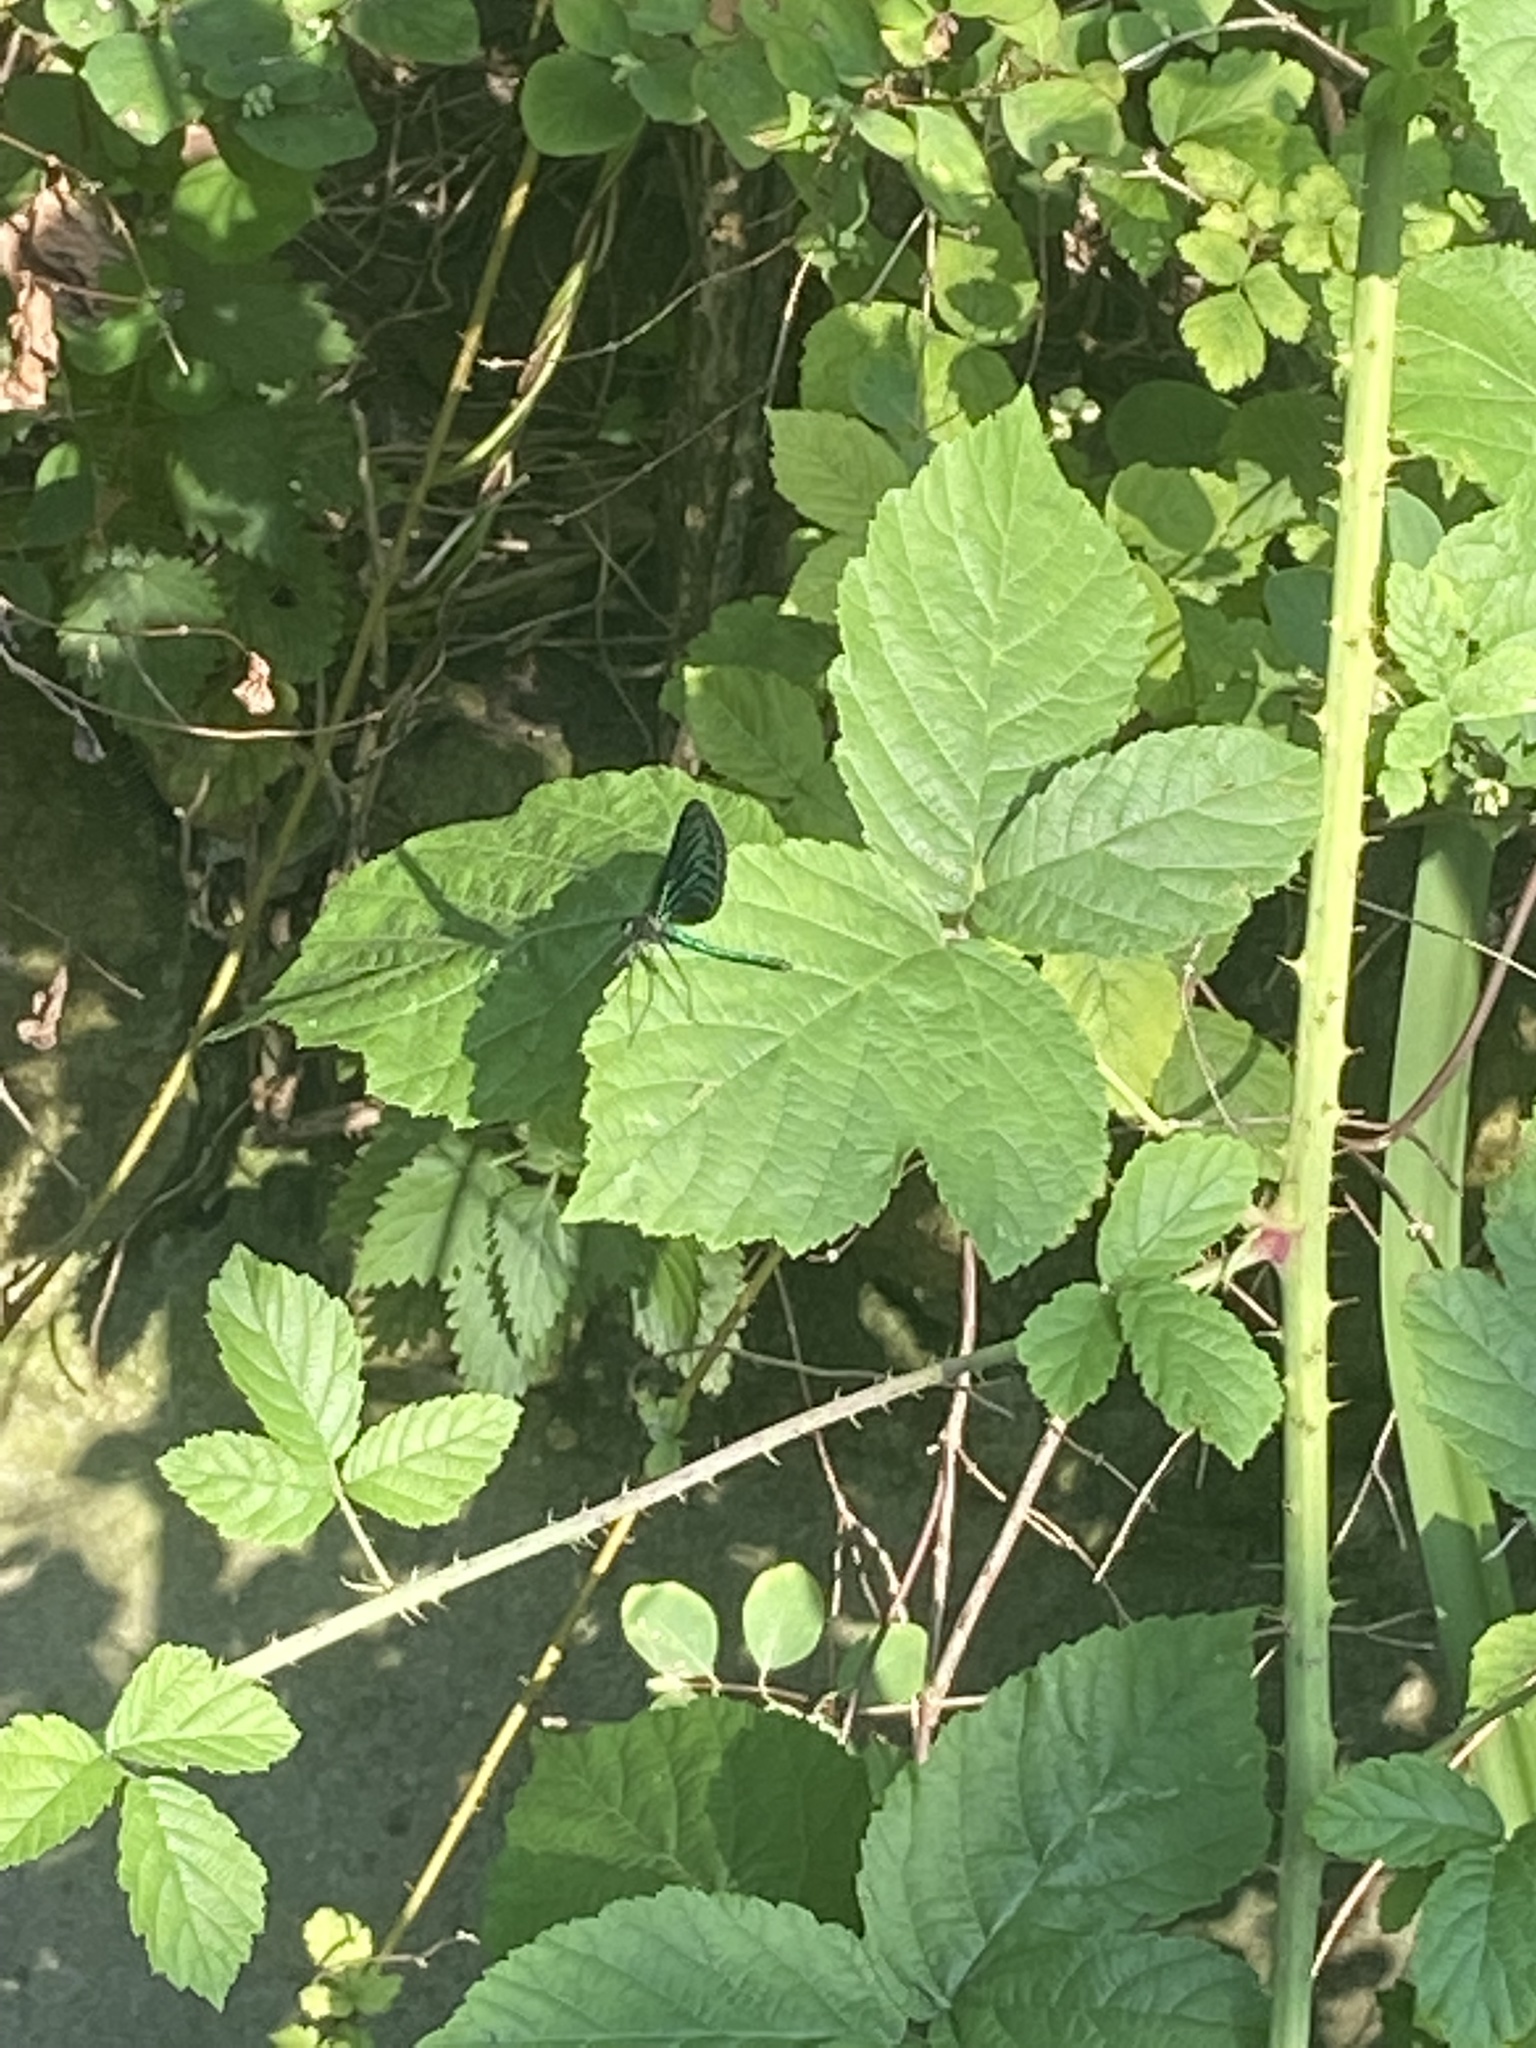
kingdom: Animalia
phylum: Arthropoda
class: Insecta
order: Odonata
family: Calopterygidae
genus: Calopteryx
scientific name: Calopteryx virgo
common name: Beautiful demoiselle
